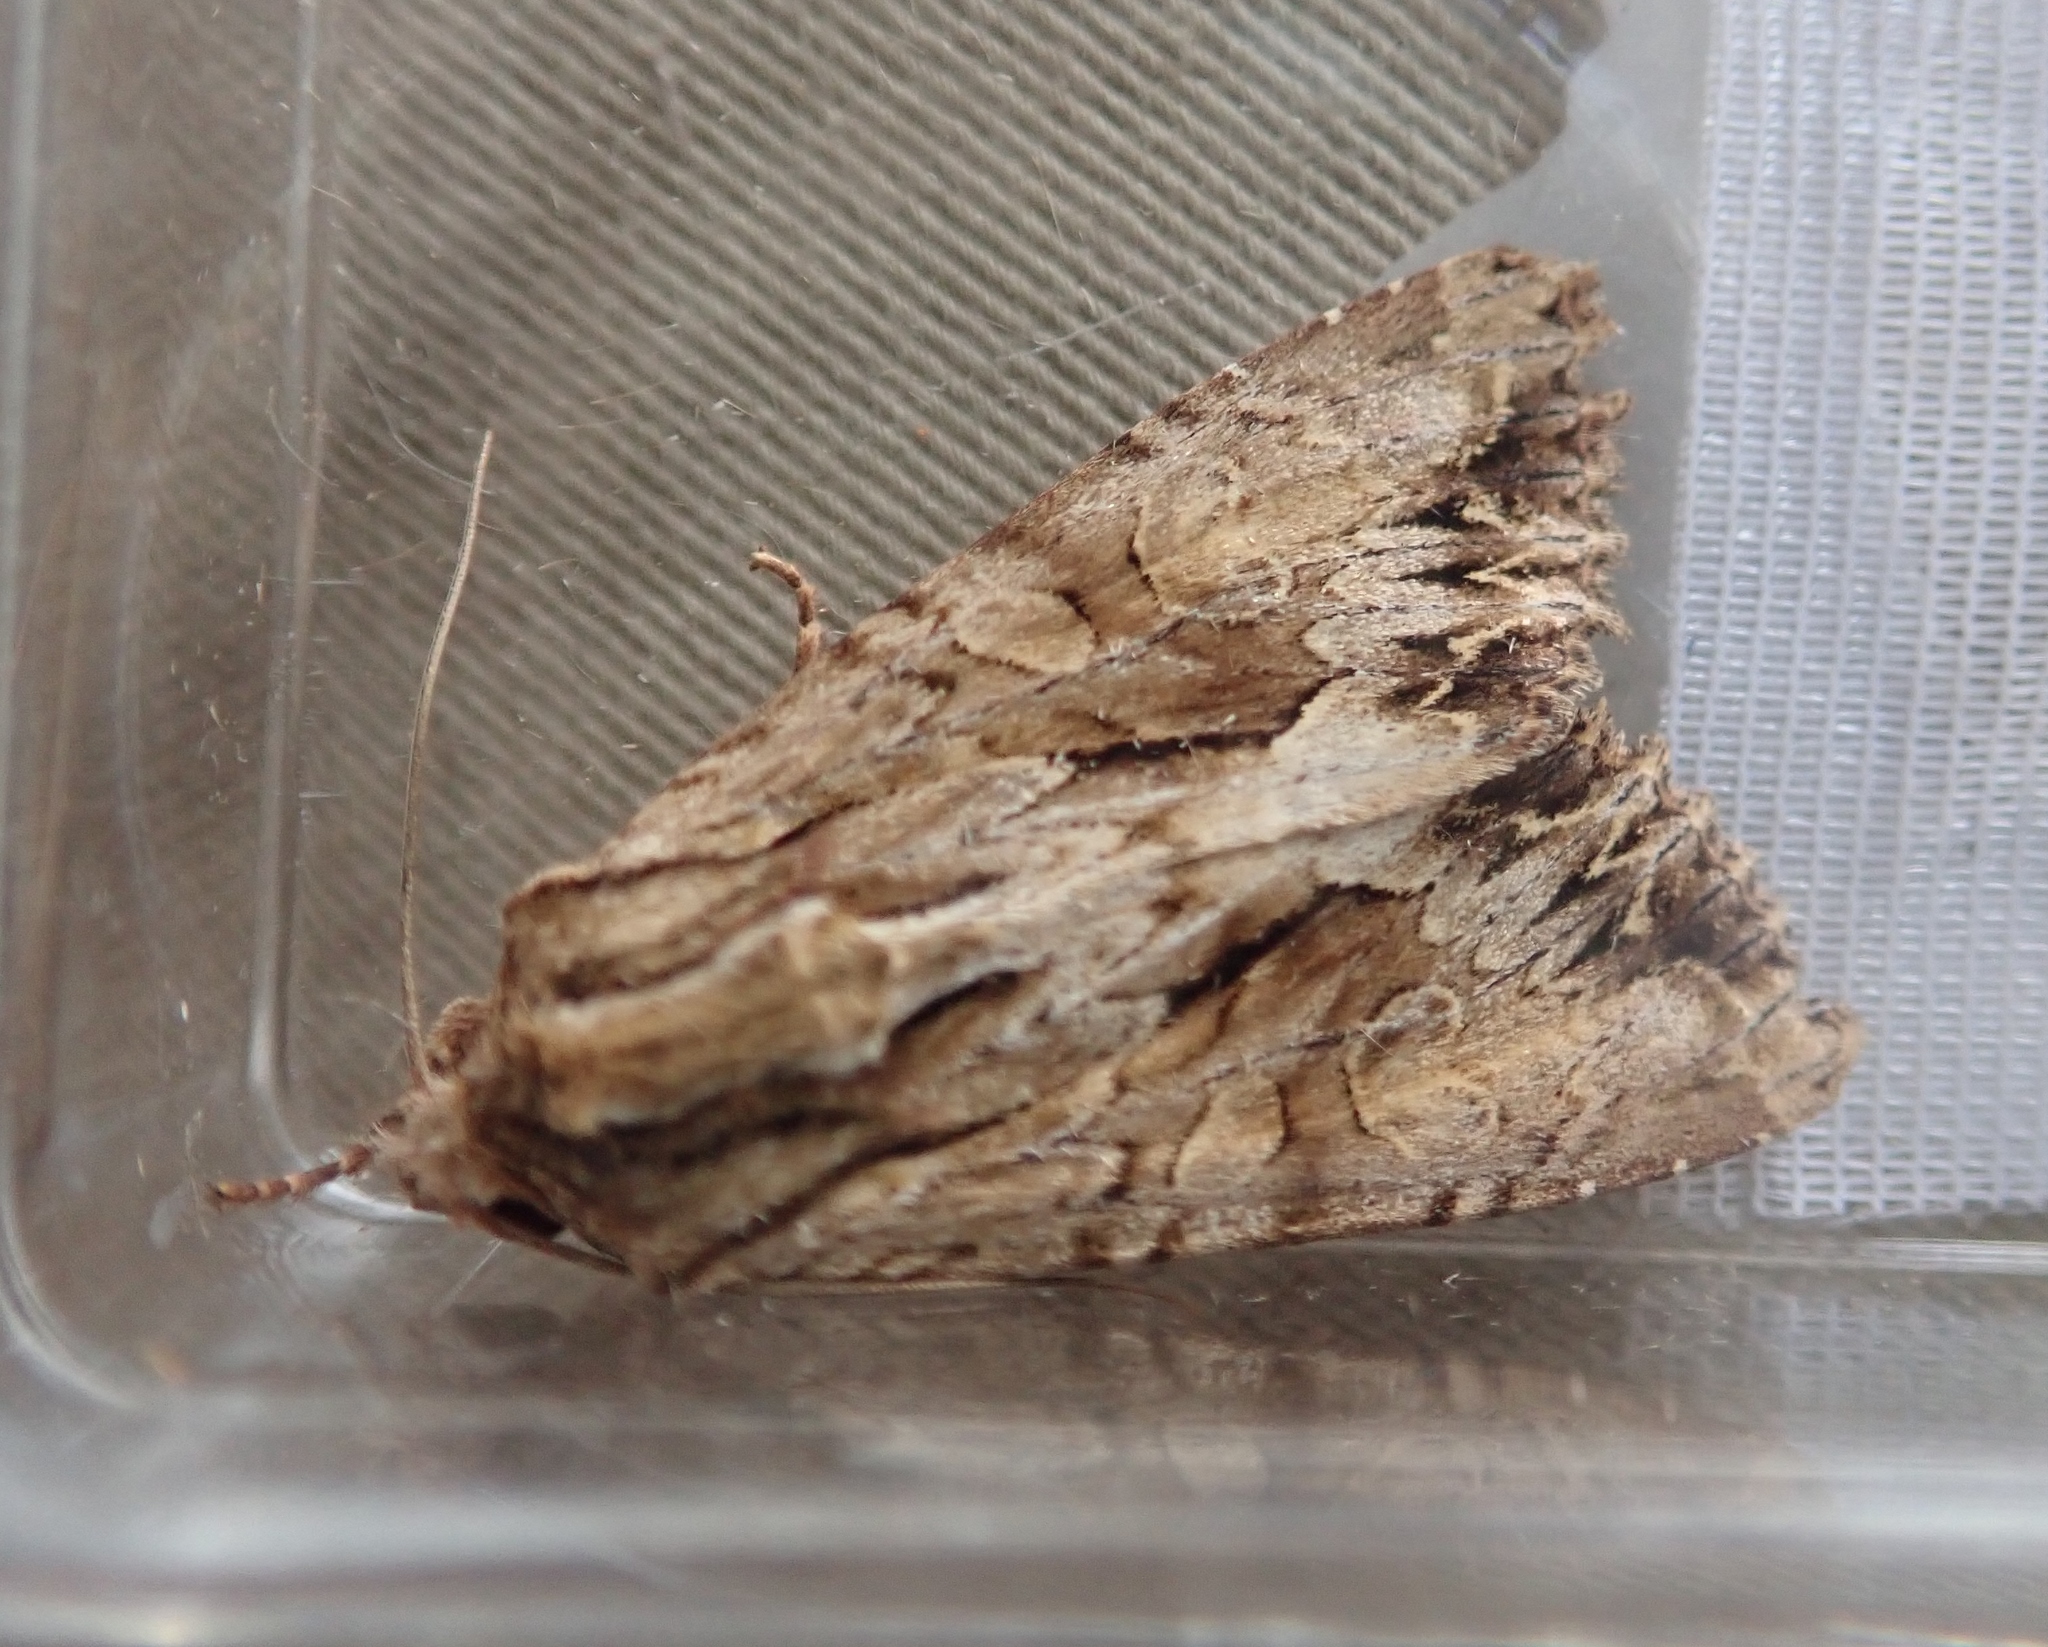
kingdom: Animalia
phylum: Arthropoda
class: Insecta
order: Lepidoptera
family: Noctuidae
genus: Apamea
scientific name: Apamea monoglypha
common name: Dark arches
